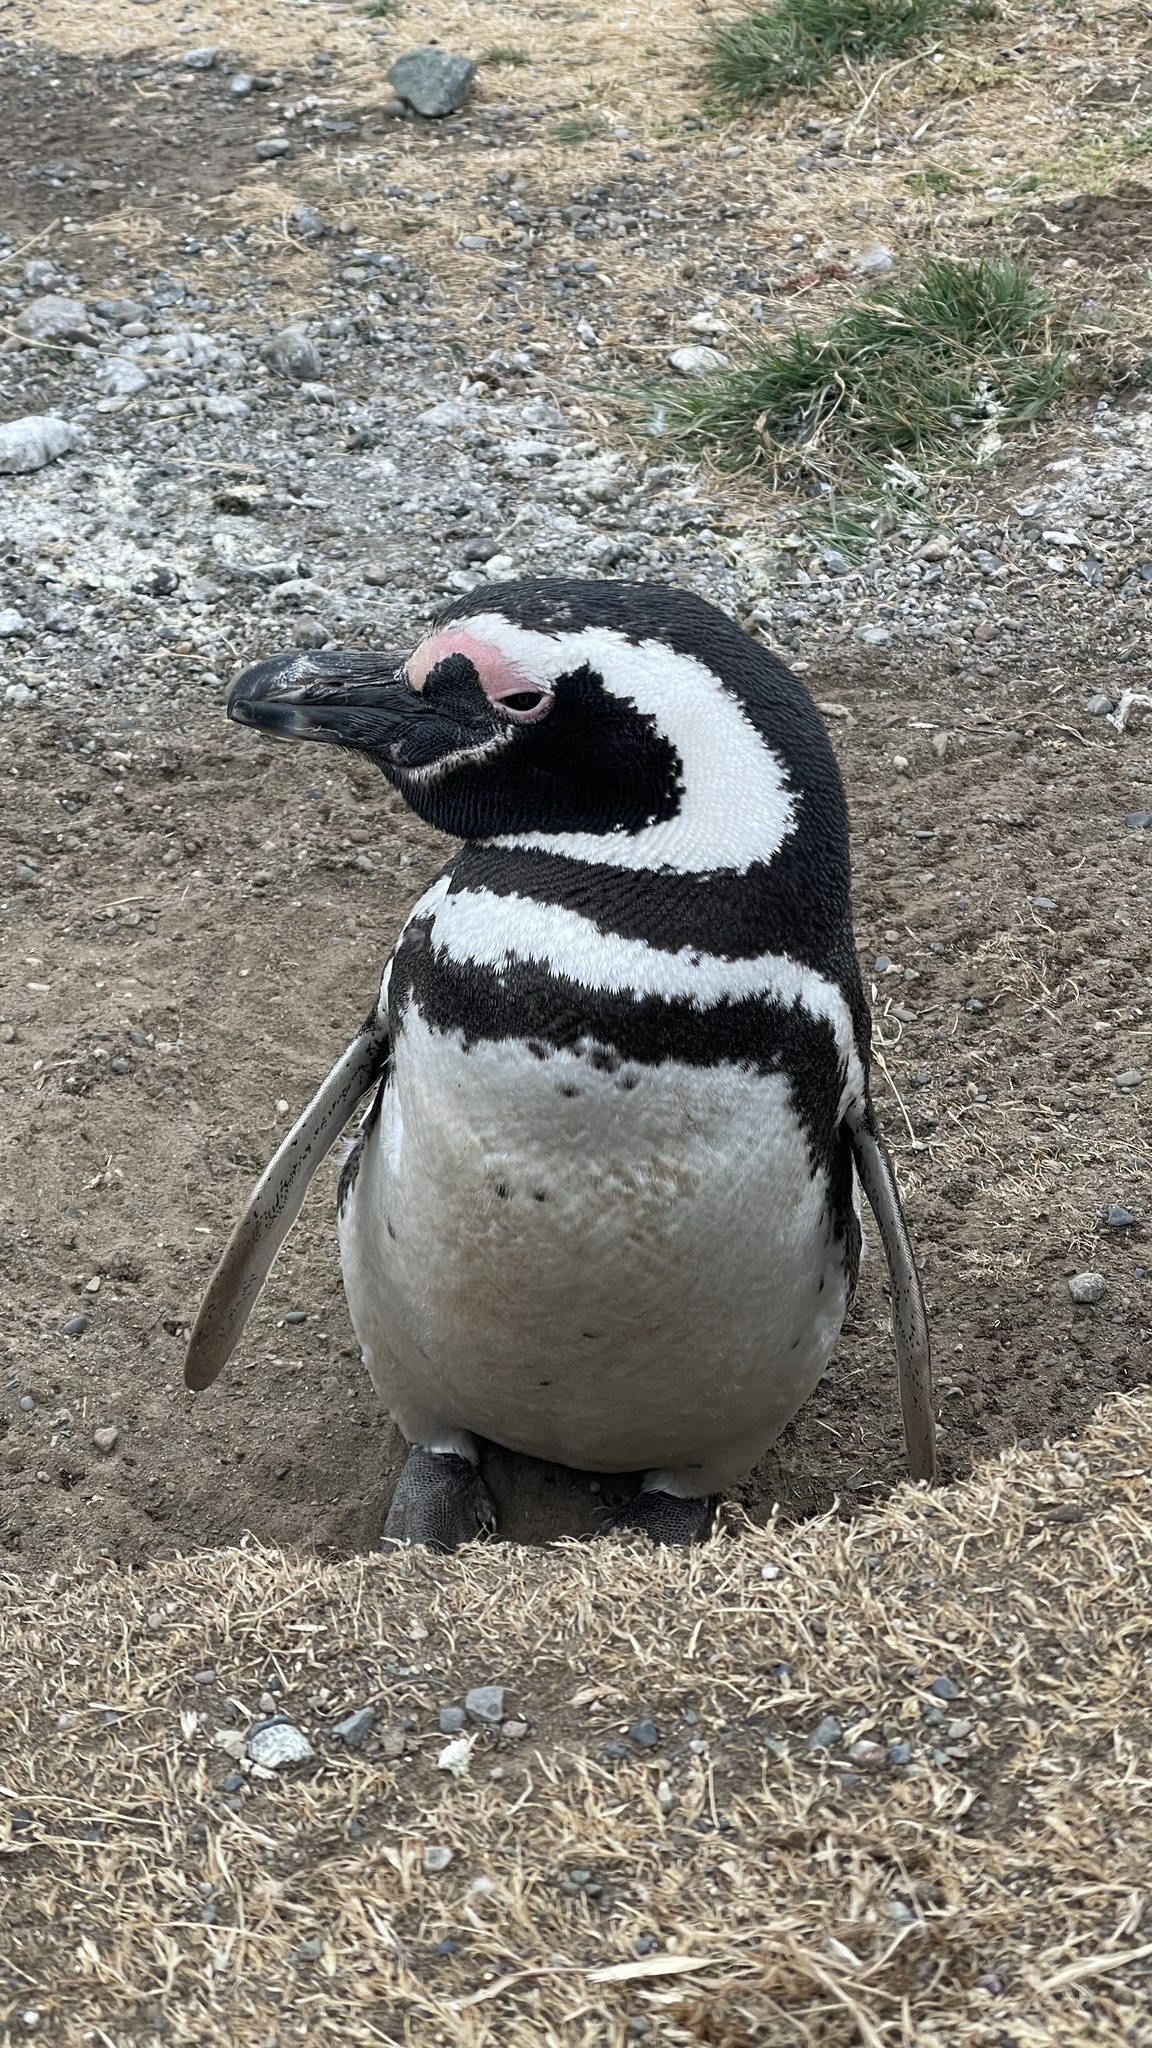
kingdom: Animalia
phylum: Chordata
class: Aves
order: Sphenisciformes
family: Spheniscidae
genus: Spheniscus
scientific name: Spheniscus magellanicus
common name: Magellanic penguin
